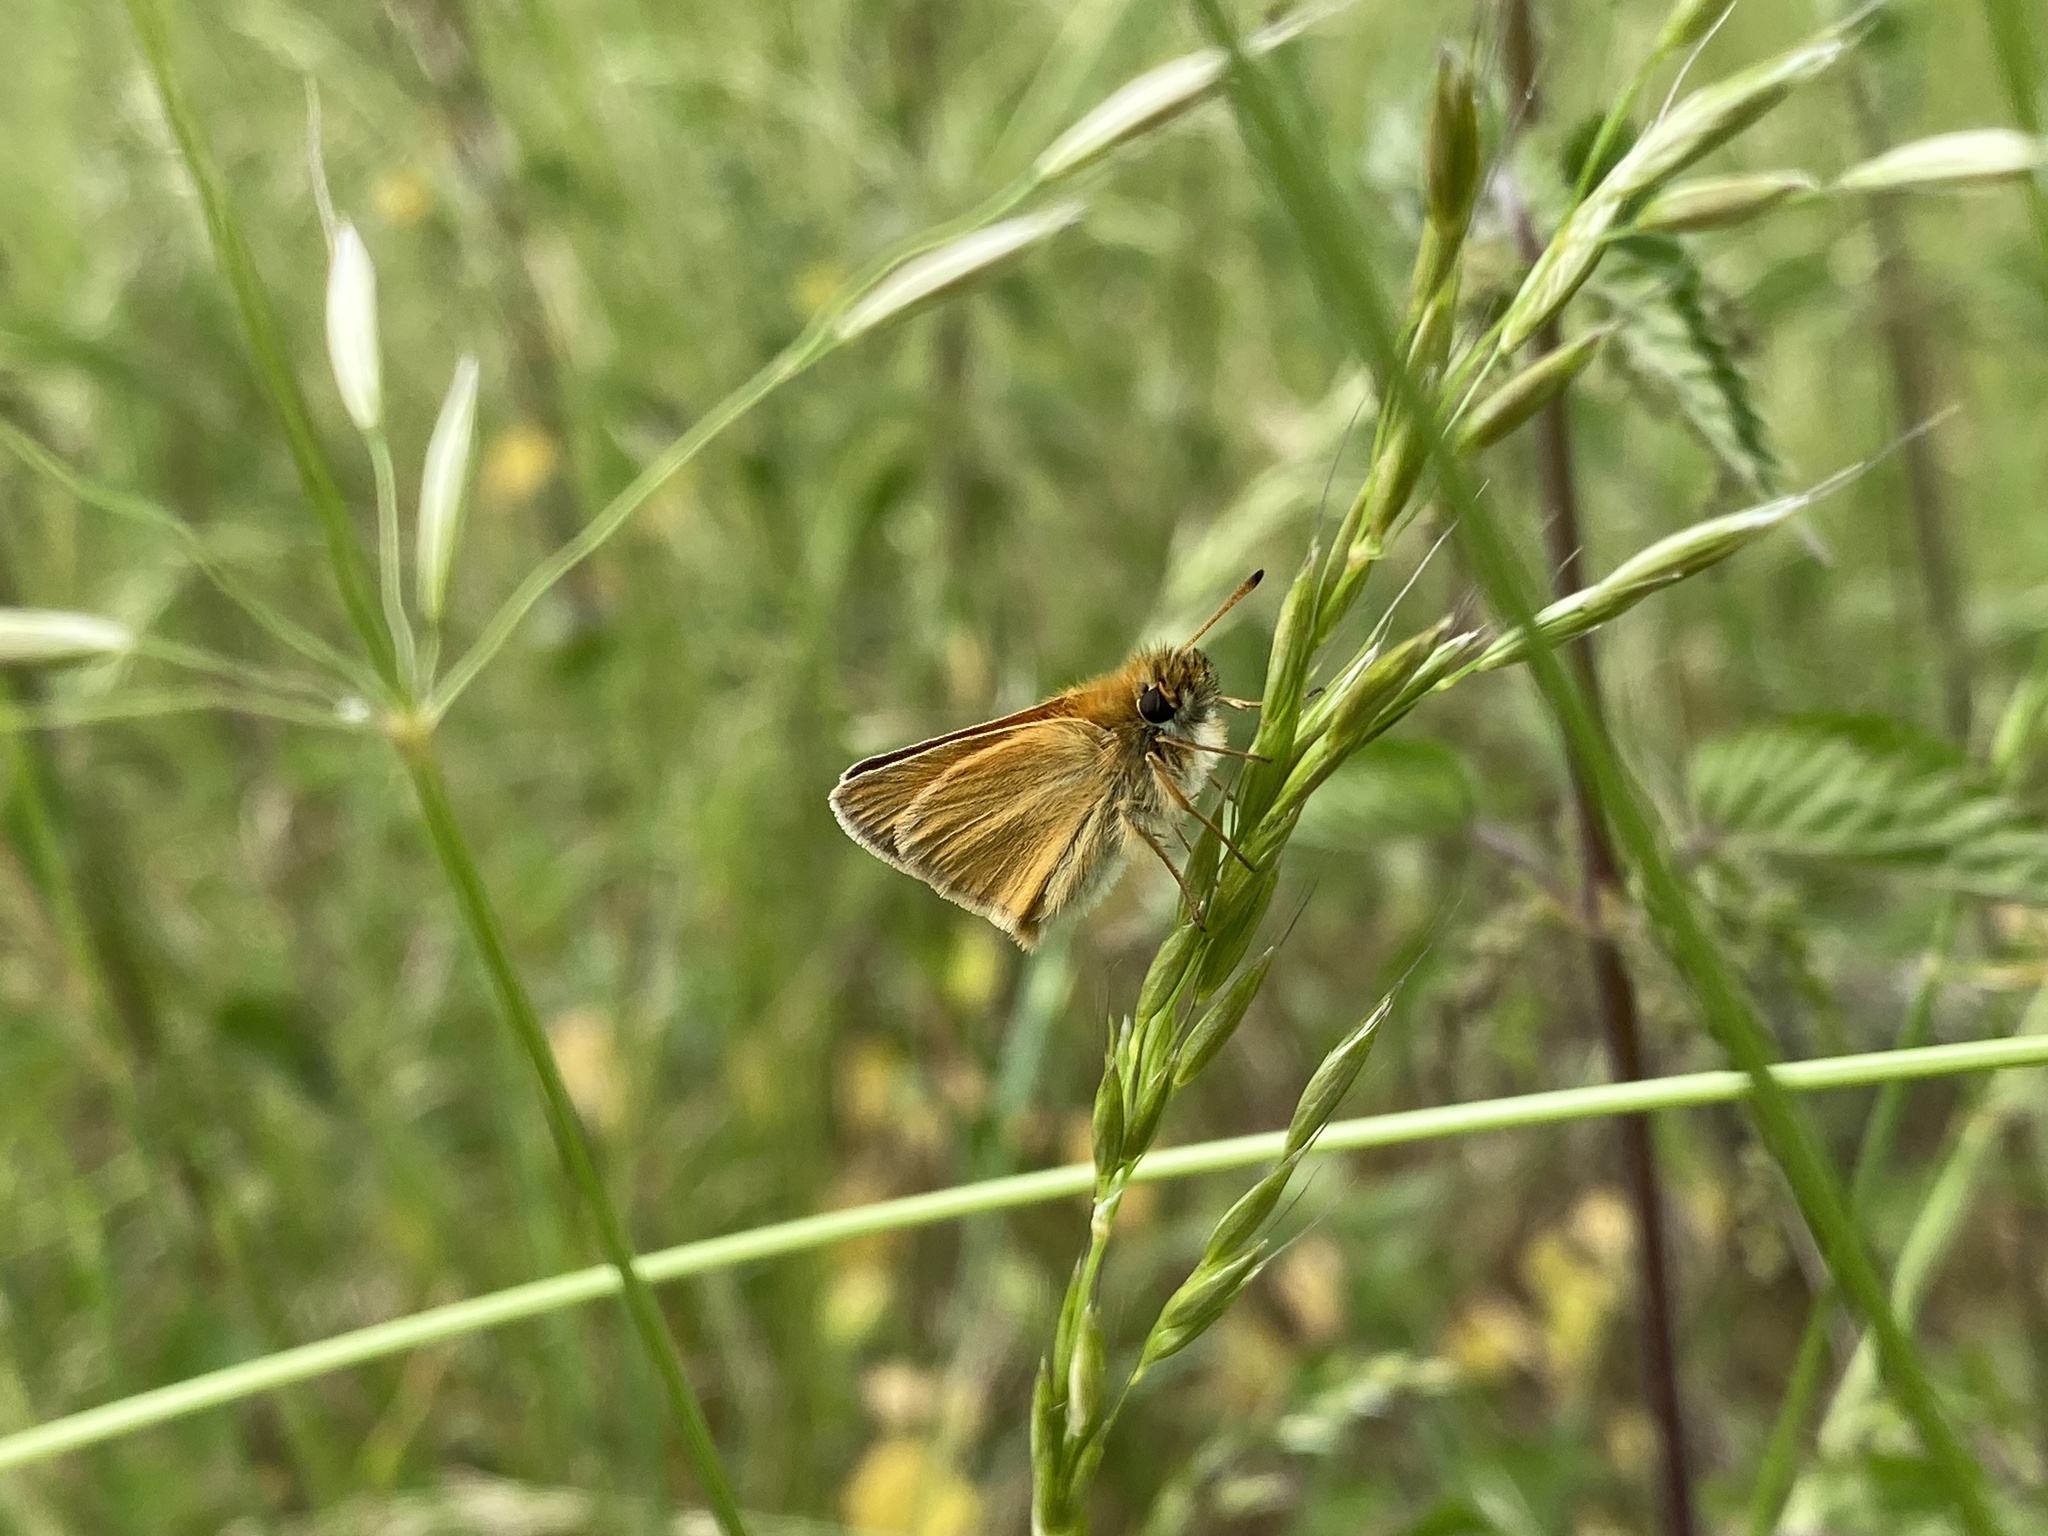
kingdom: Animalia
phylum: Arthropoda
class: Insecta
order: Lepidoptera
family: Hesperiidae
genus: Thymelicus
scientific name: Thymelicus lineola
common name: Essex skipper
